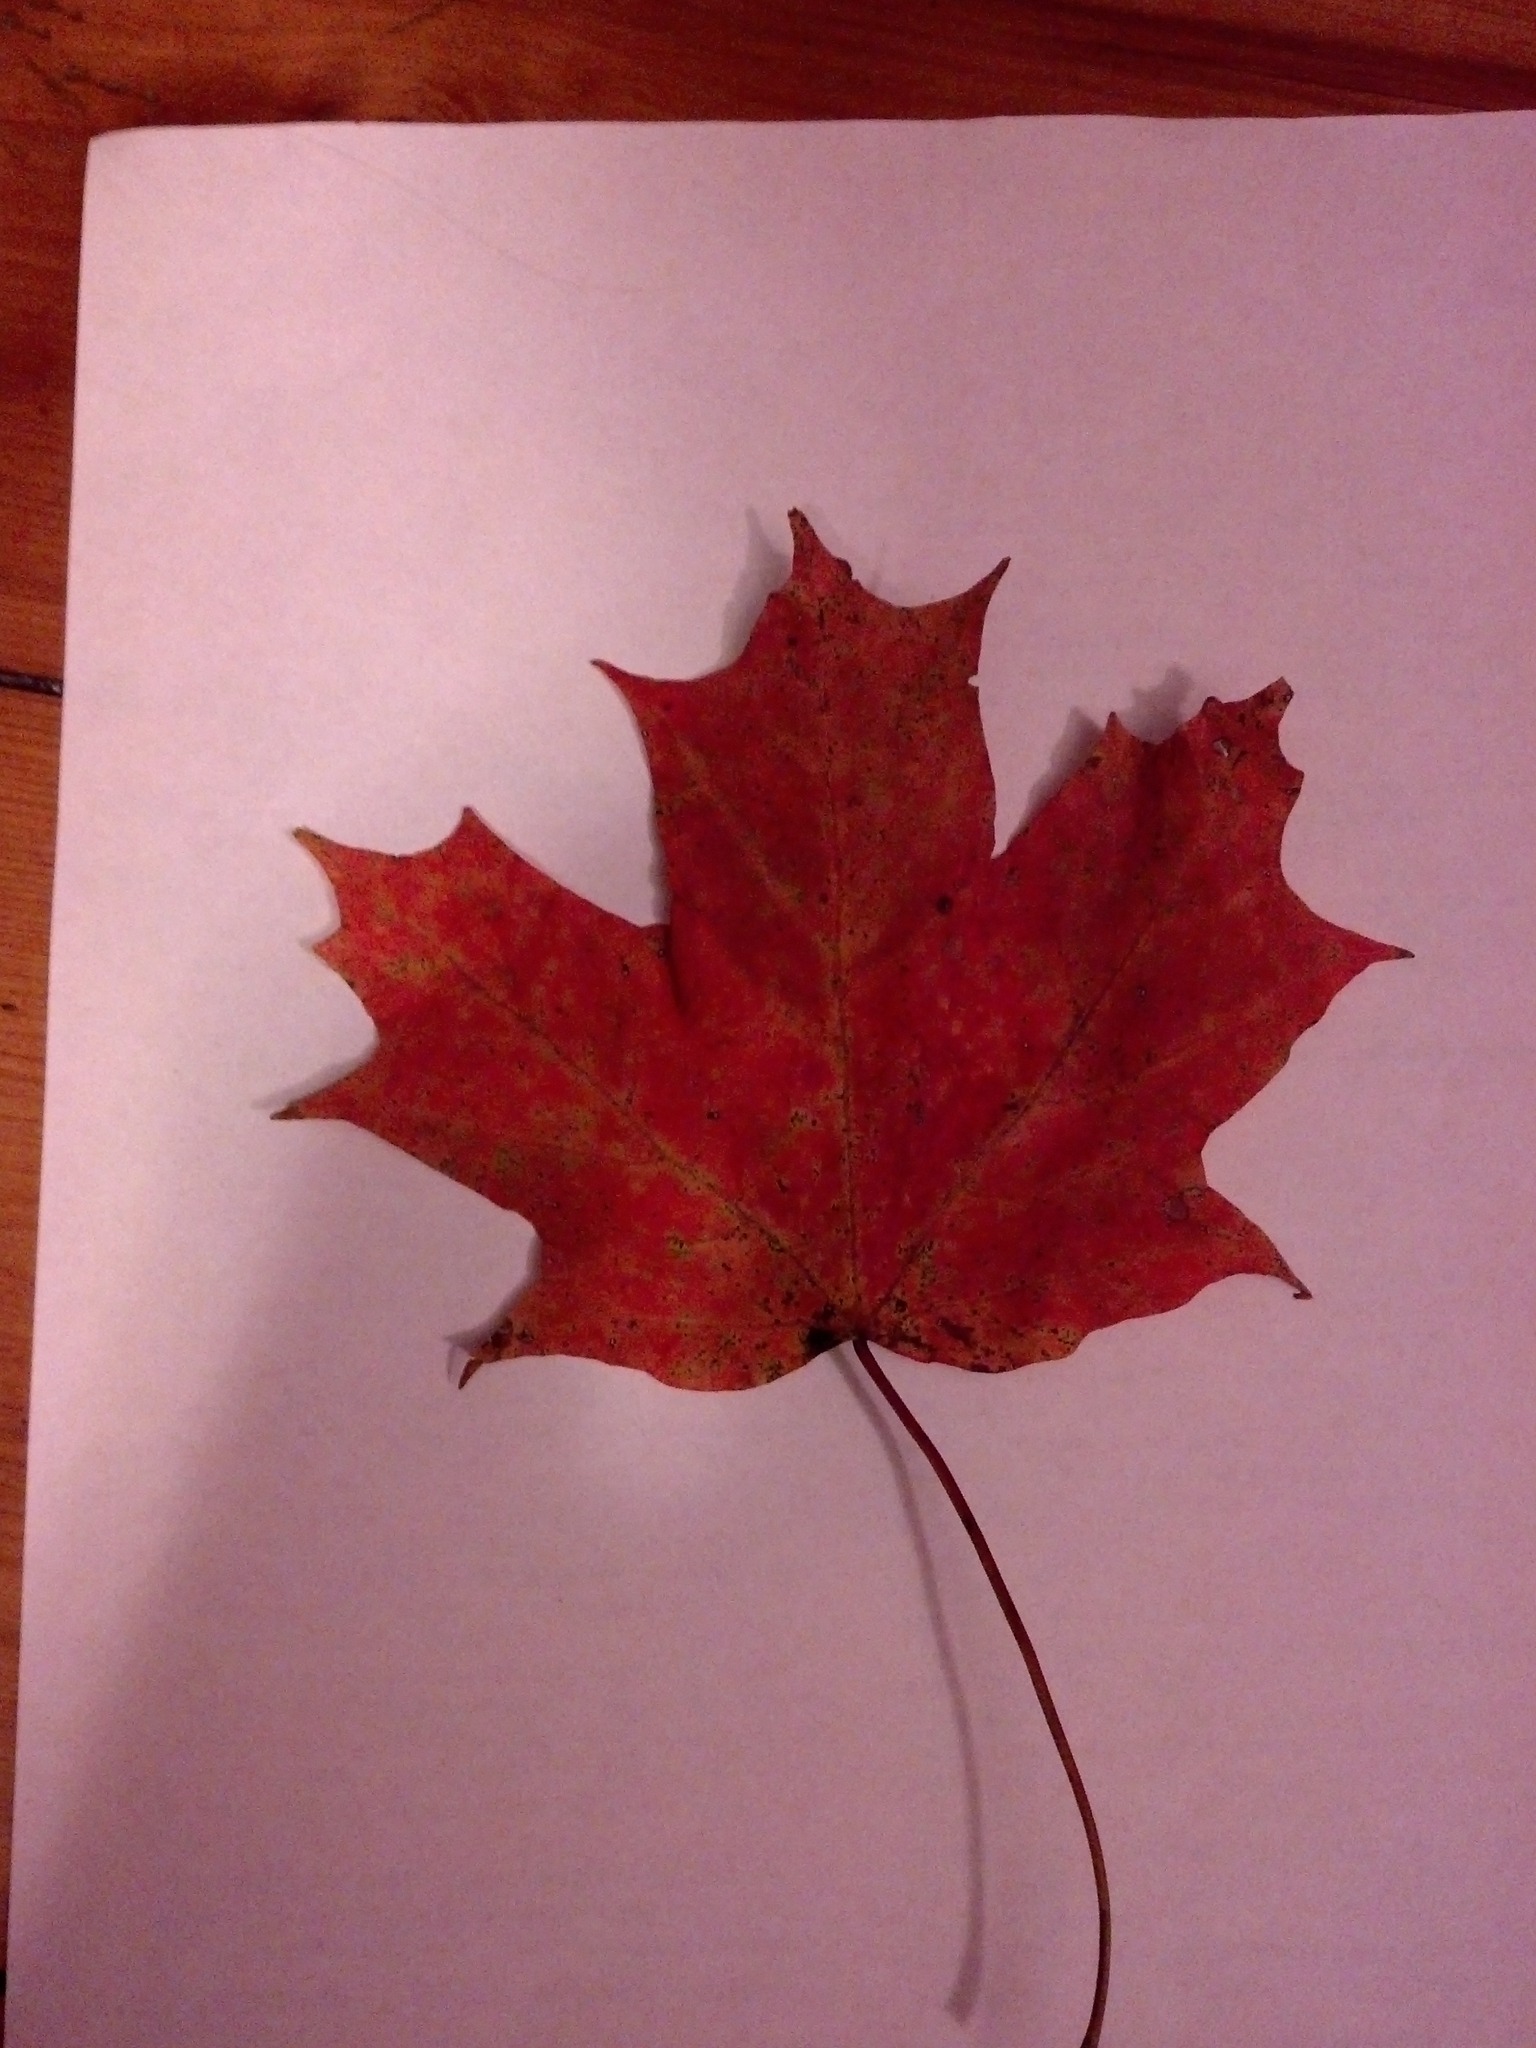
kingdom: Plantae
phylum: Tracheophyta
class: Magnoliopsida
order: Sapindales
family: Sapindaceae
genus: Acer
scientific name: Acer saccharum
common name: Sugar maple
